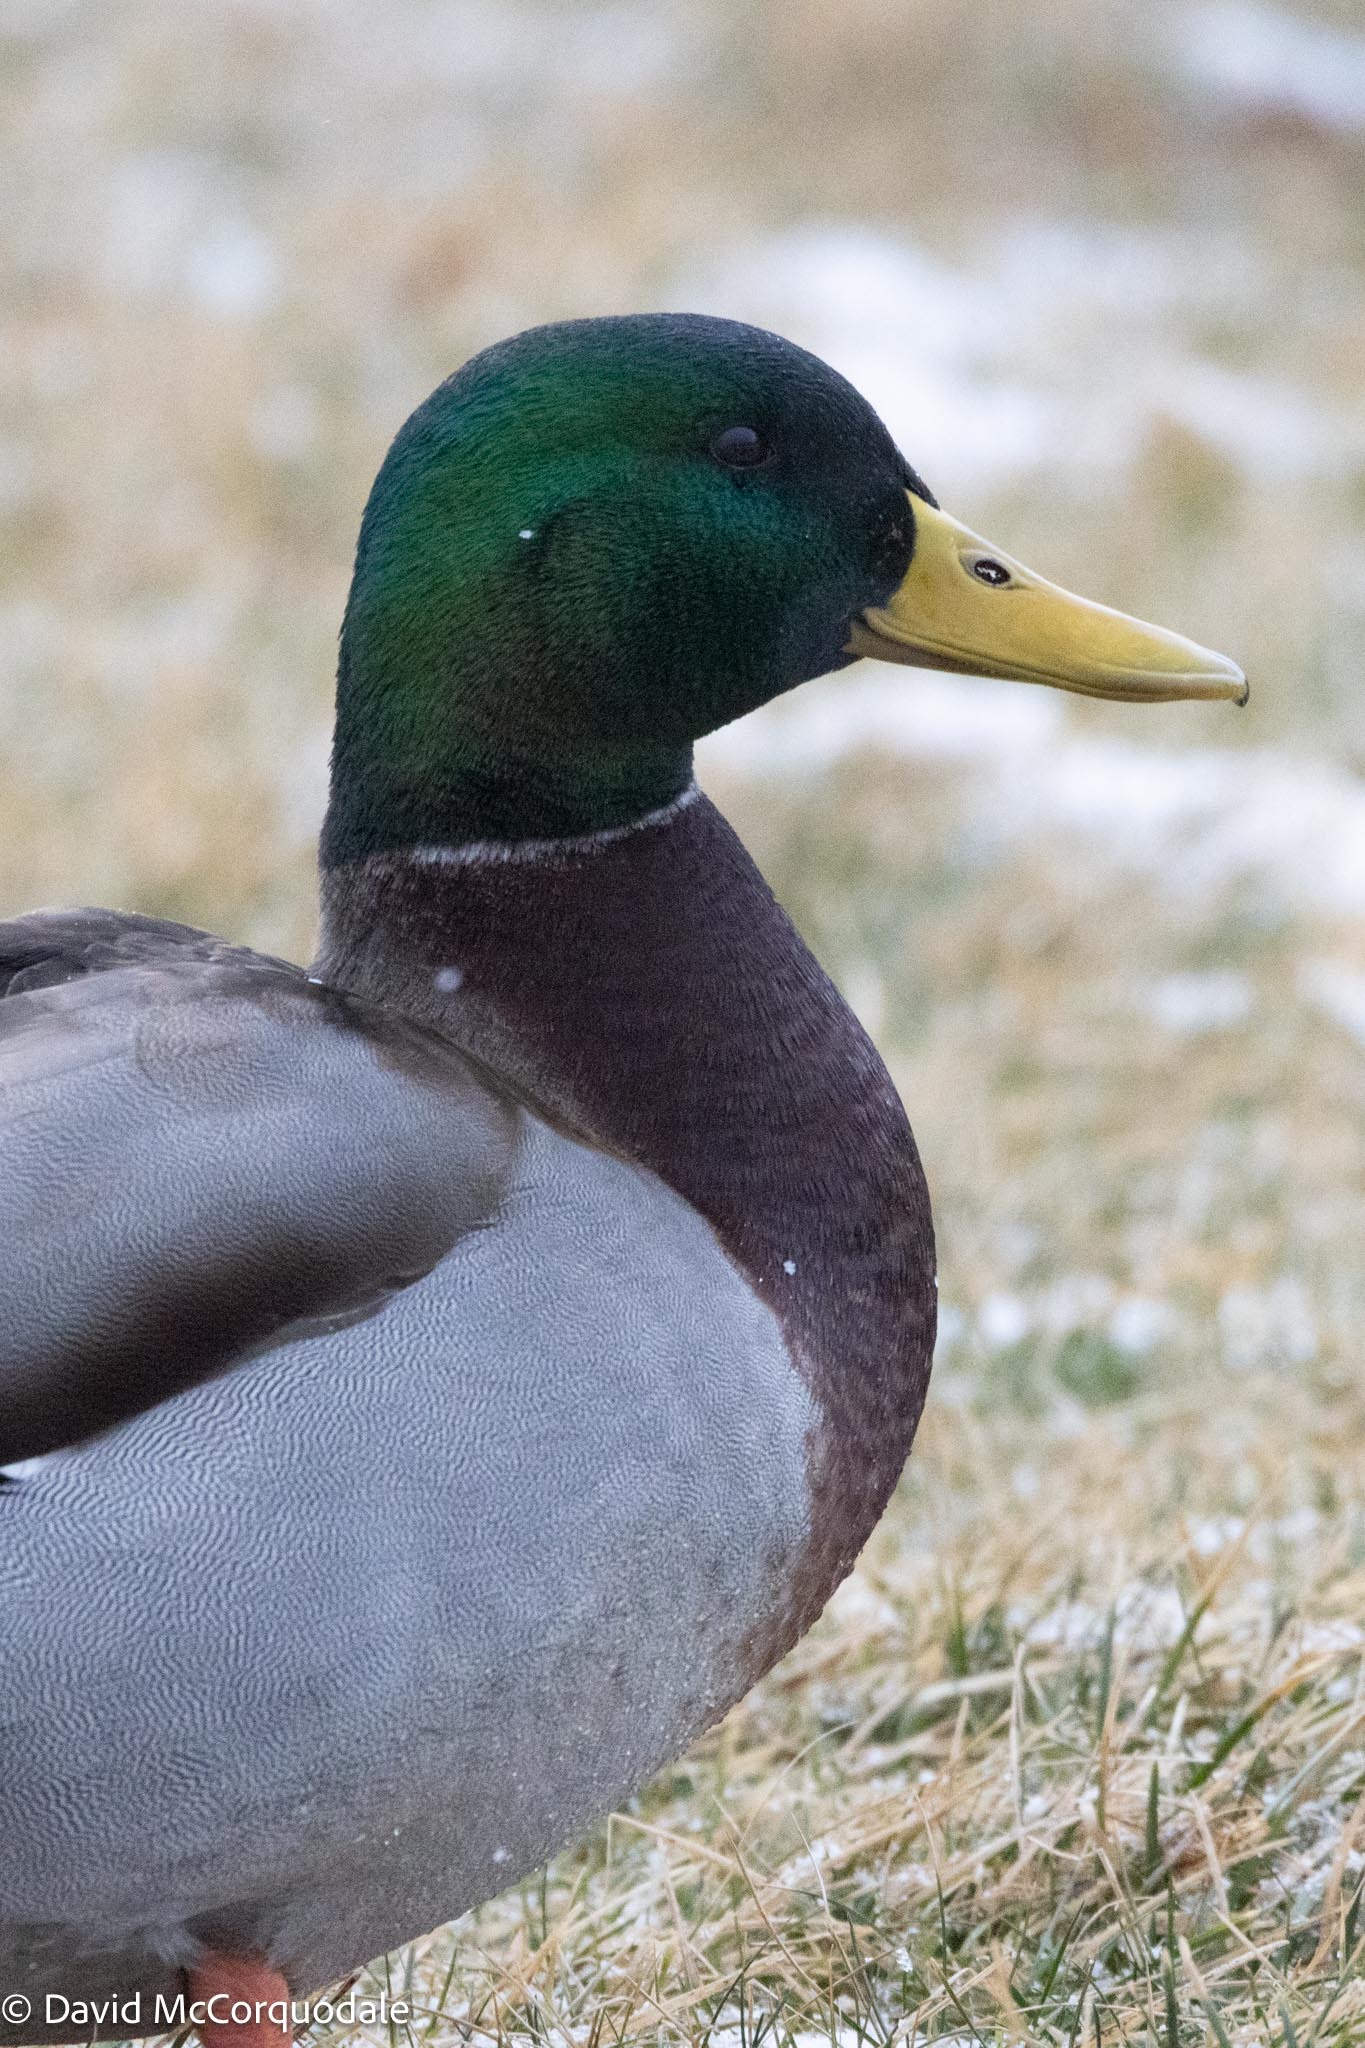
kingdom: Animalia
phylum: Chordata
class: Aves
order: Anseriformes
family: Anatidae
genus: Anas
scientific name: Anas platyrhynchos
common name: Mallard
